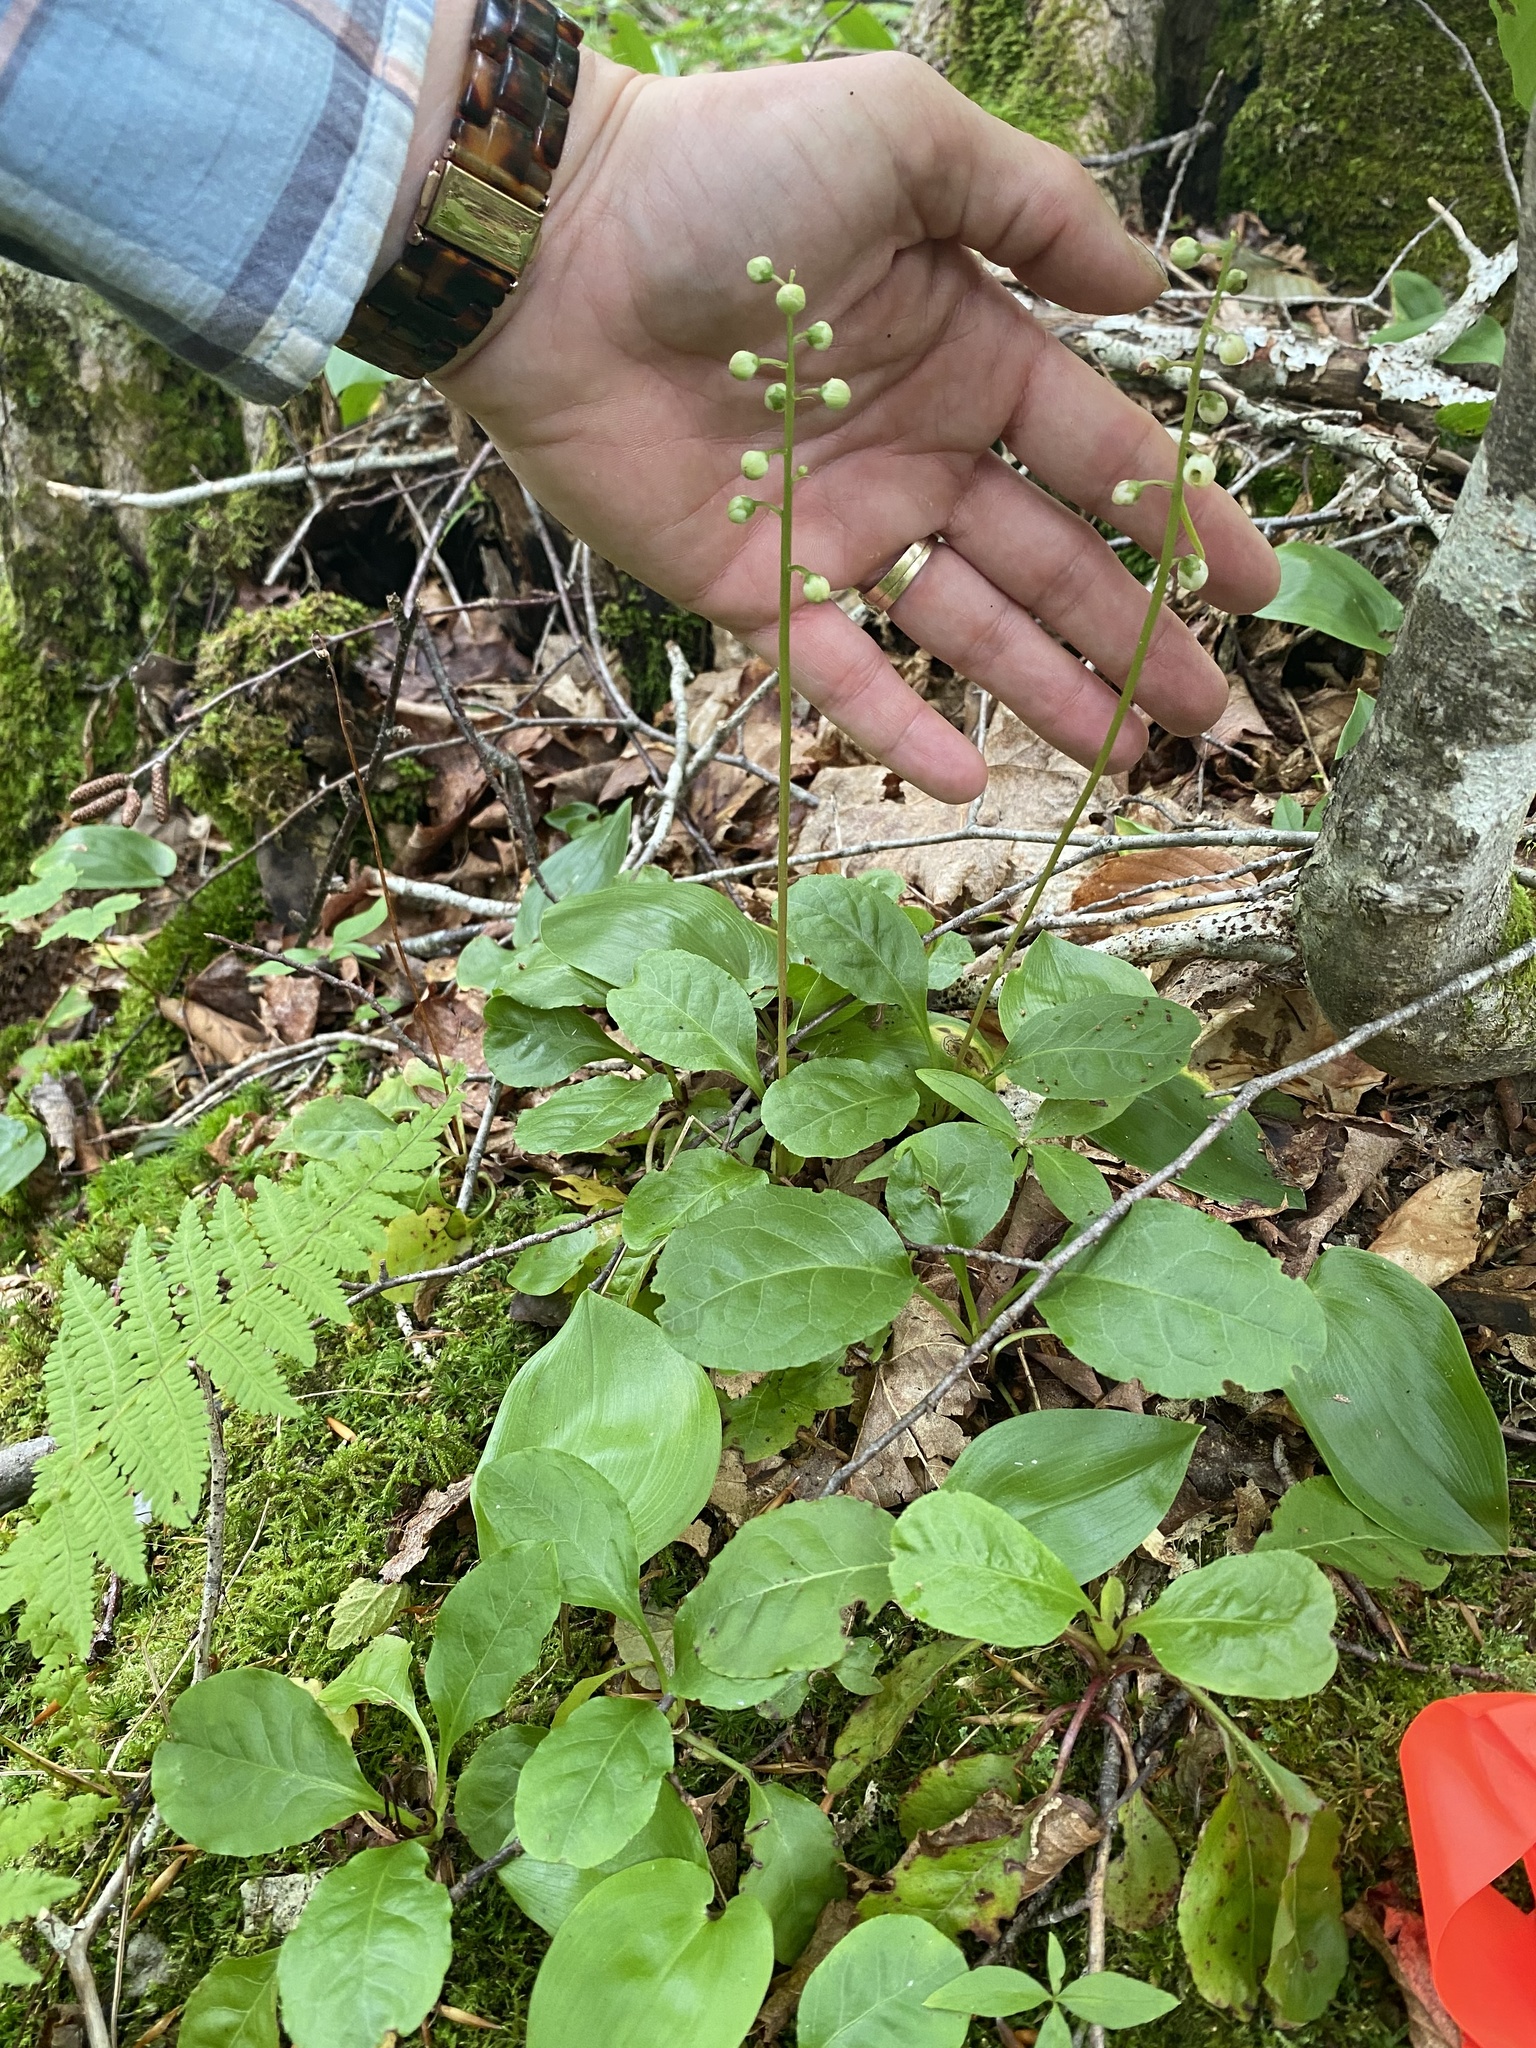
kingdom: Plantae
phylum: Tracheophyta
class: Magnoliopsida
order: Ericales
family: Ericaceae
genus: Pyrola
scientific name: Pyrola elliptica
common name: Shinleaf
